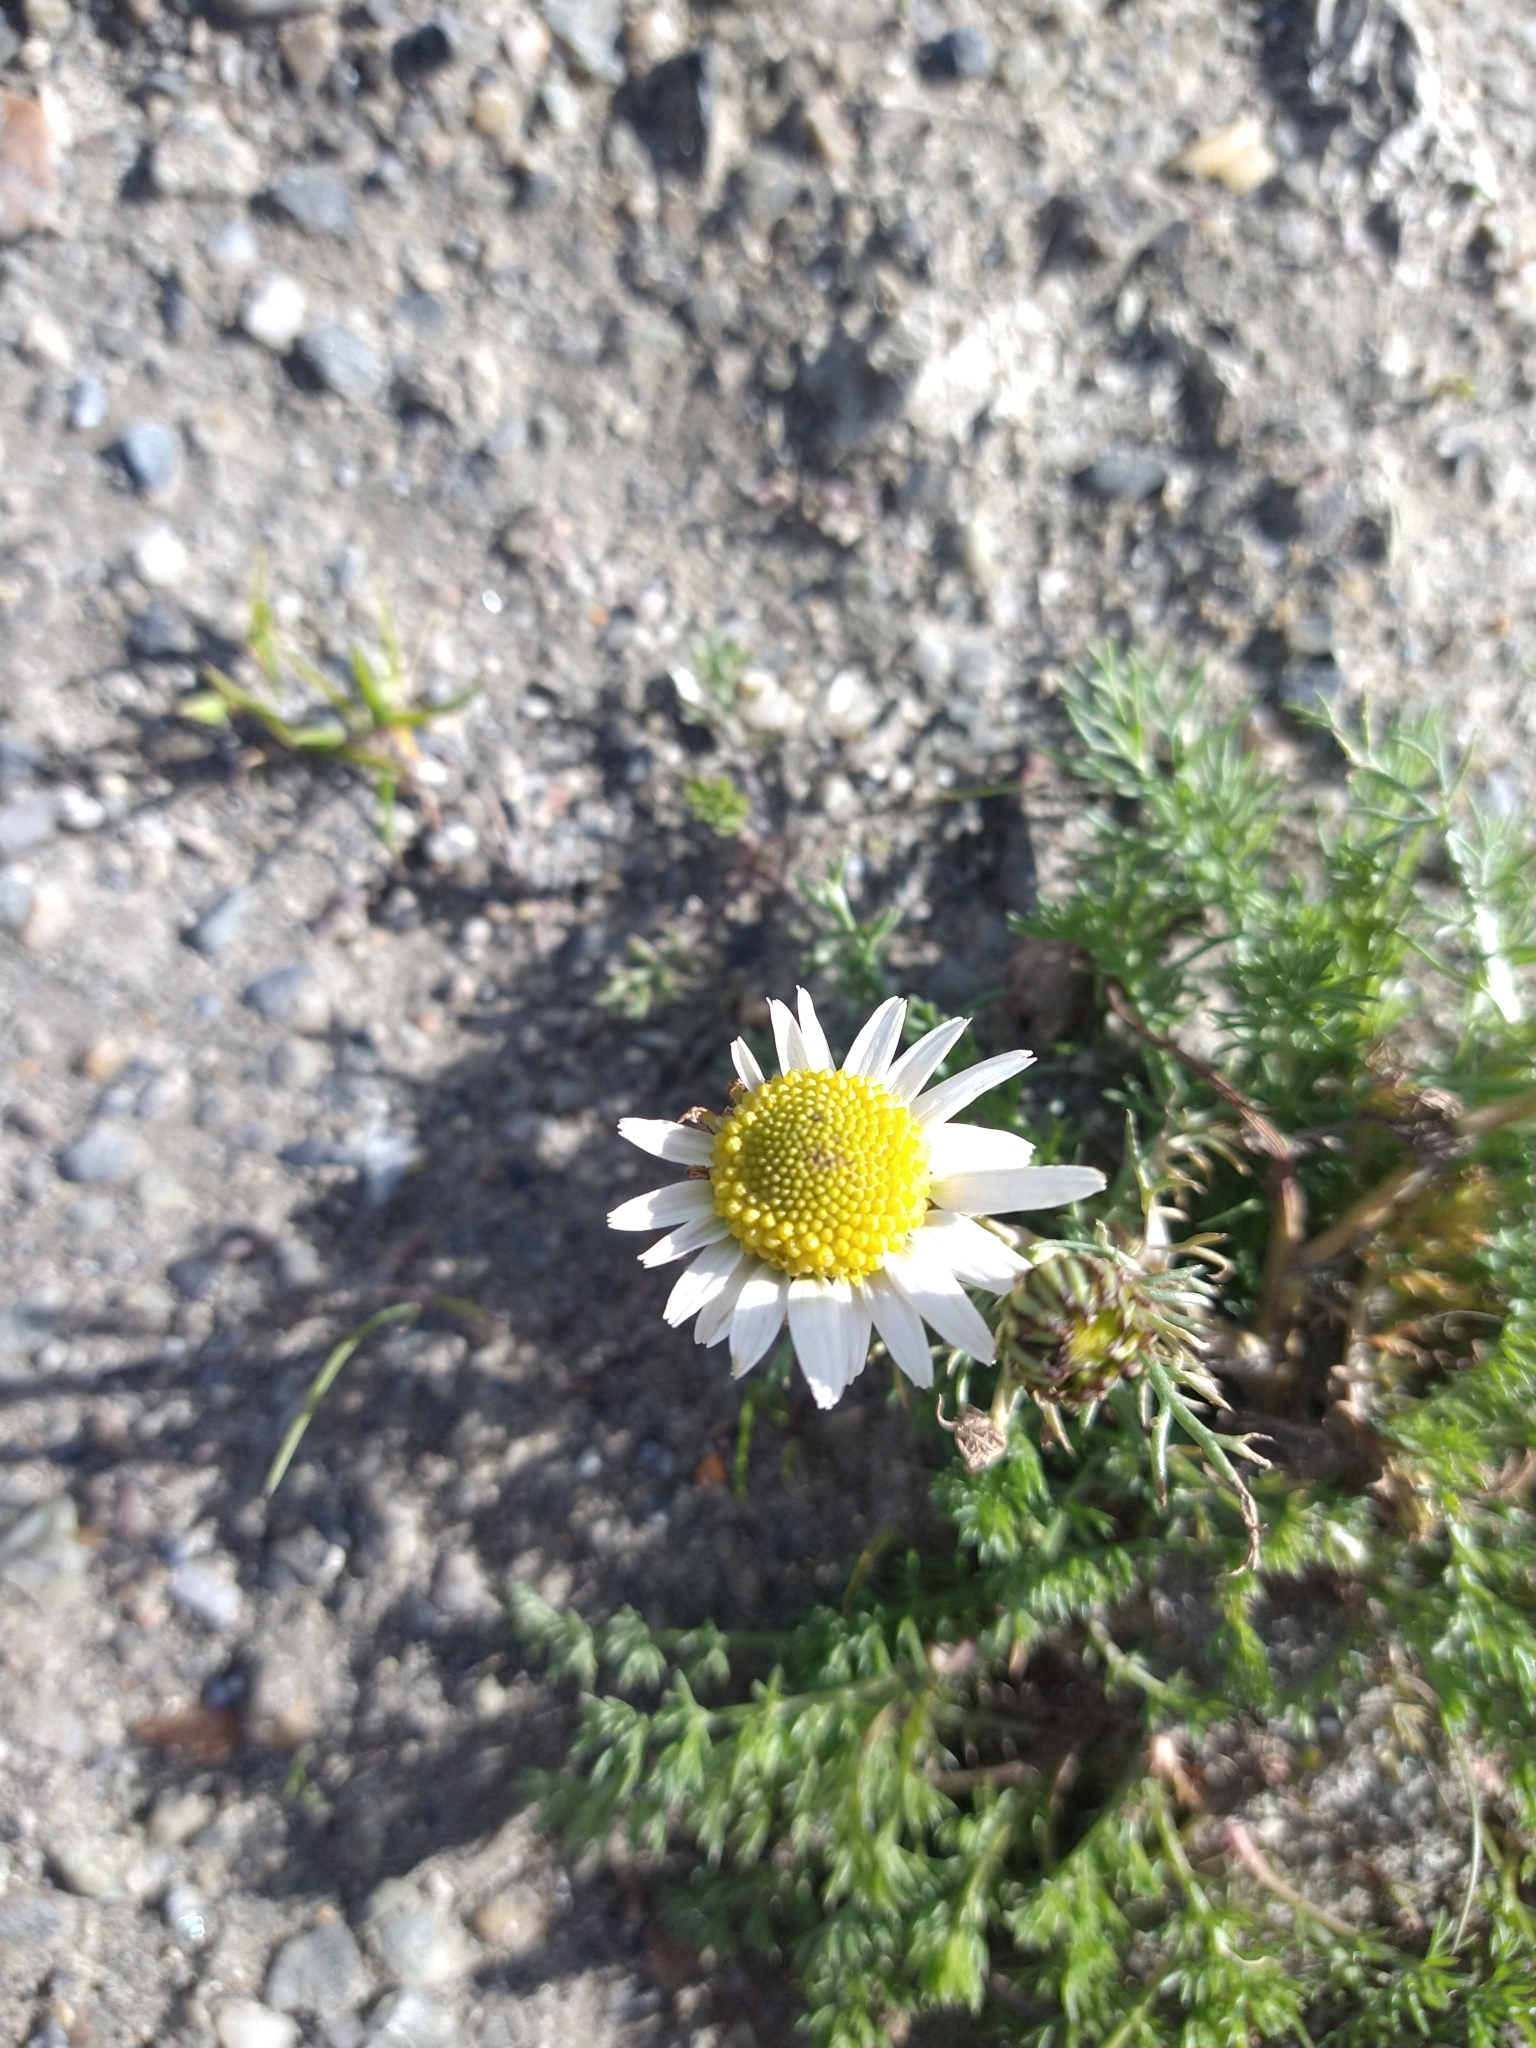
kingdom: Plantae
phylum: Tracheophyta
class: Magnoliopsida
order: Asterales
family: Asteraceae
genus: Tripleurospermum
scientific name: Tripleurospermum inodorum
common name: Scentless mayweed
